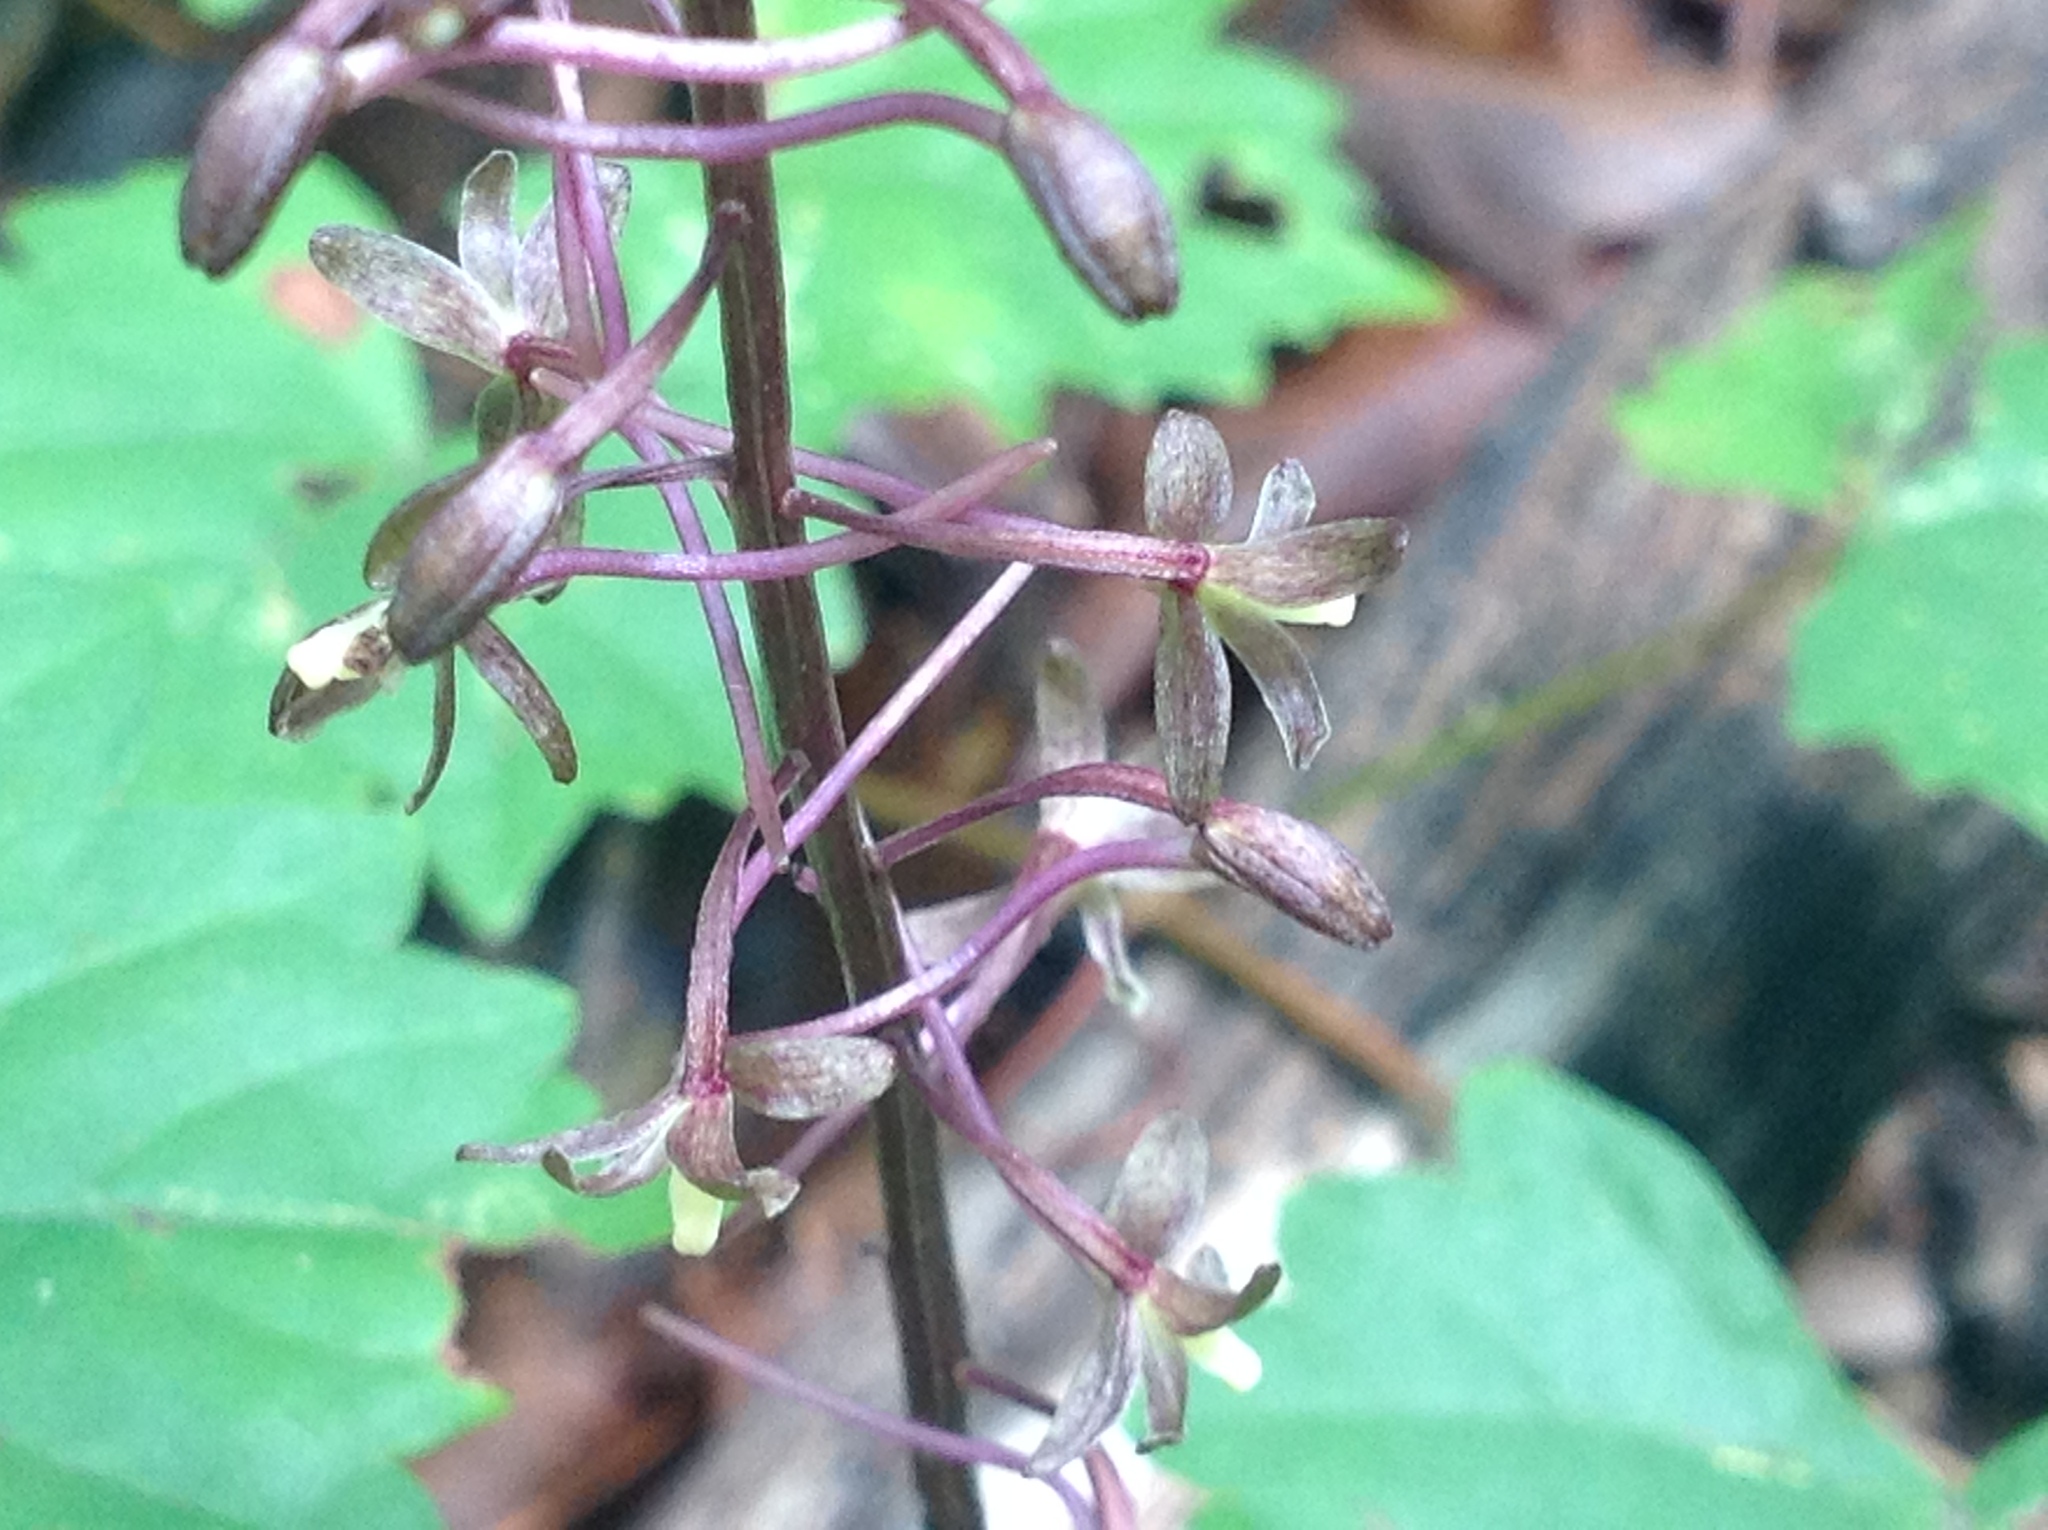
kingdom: Plantae
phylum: Tracheophyta
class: Liliopsida
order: Asparagales
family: Orchidaceae
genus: Tipularia
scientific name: Tipularia discolor
